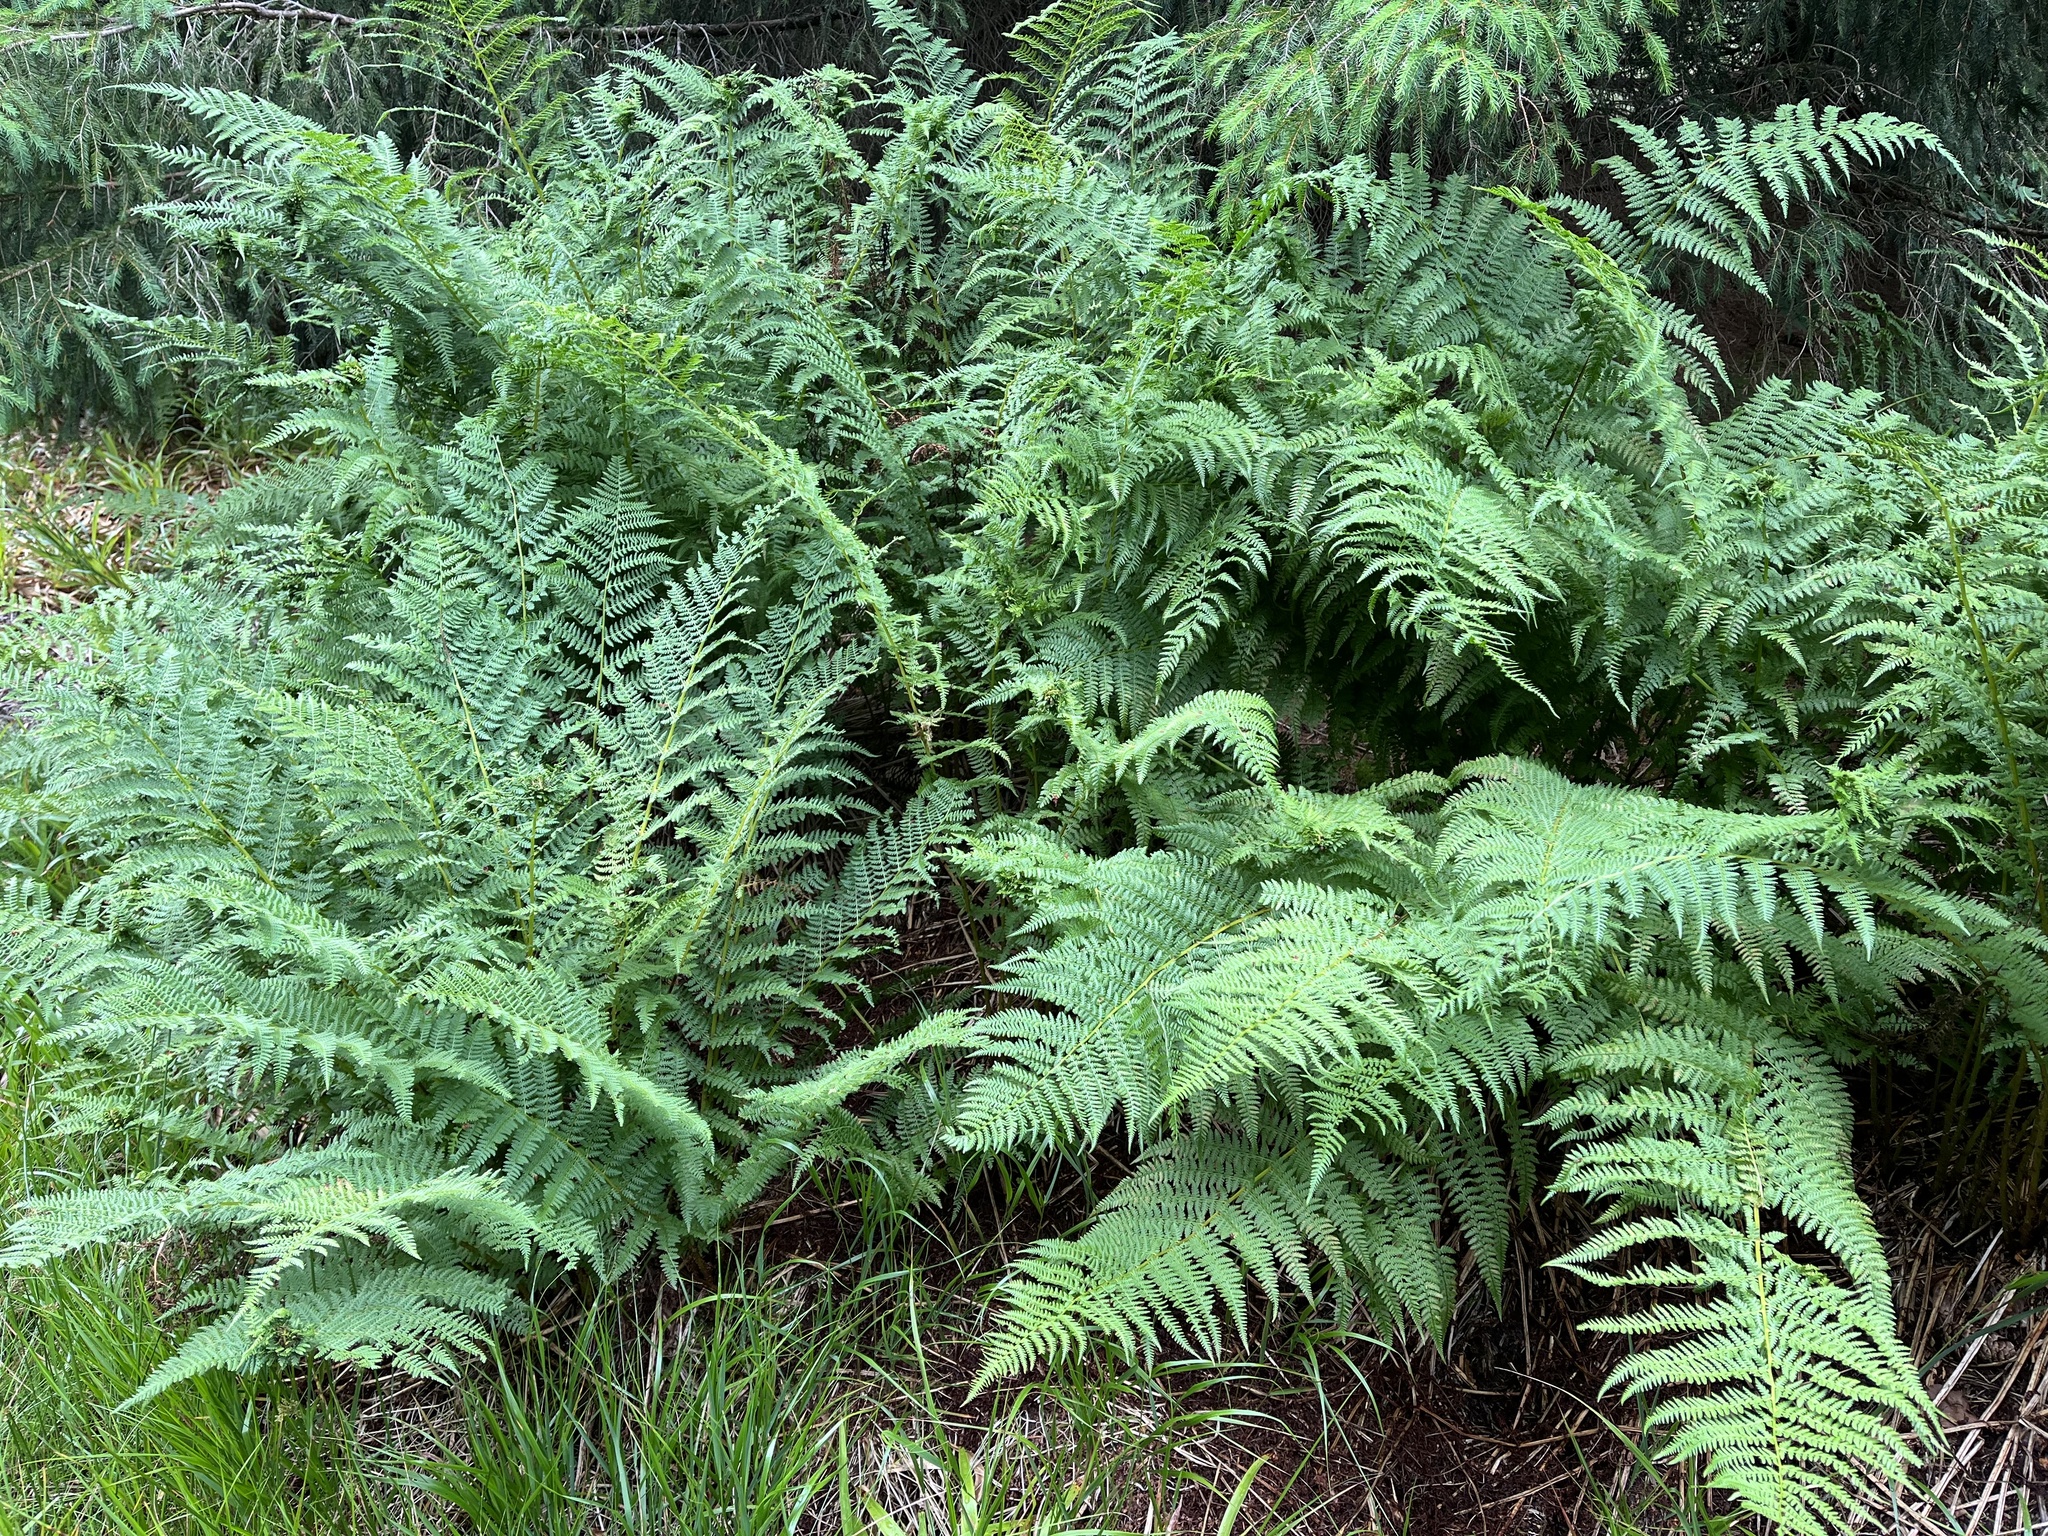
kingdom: Plantae
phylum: Tracheophyta
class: Polypodiopsida
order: Polypodiales
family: Athyriaceae
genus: Pseudathyrium
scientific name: Pseudathyrium alpestre
